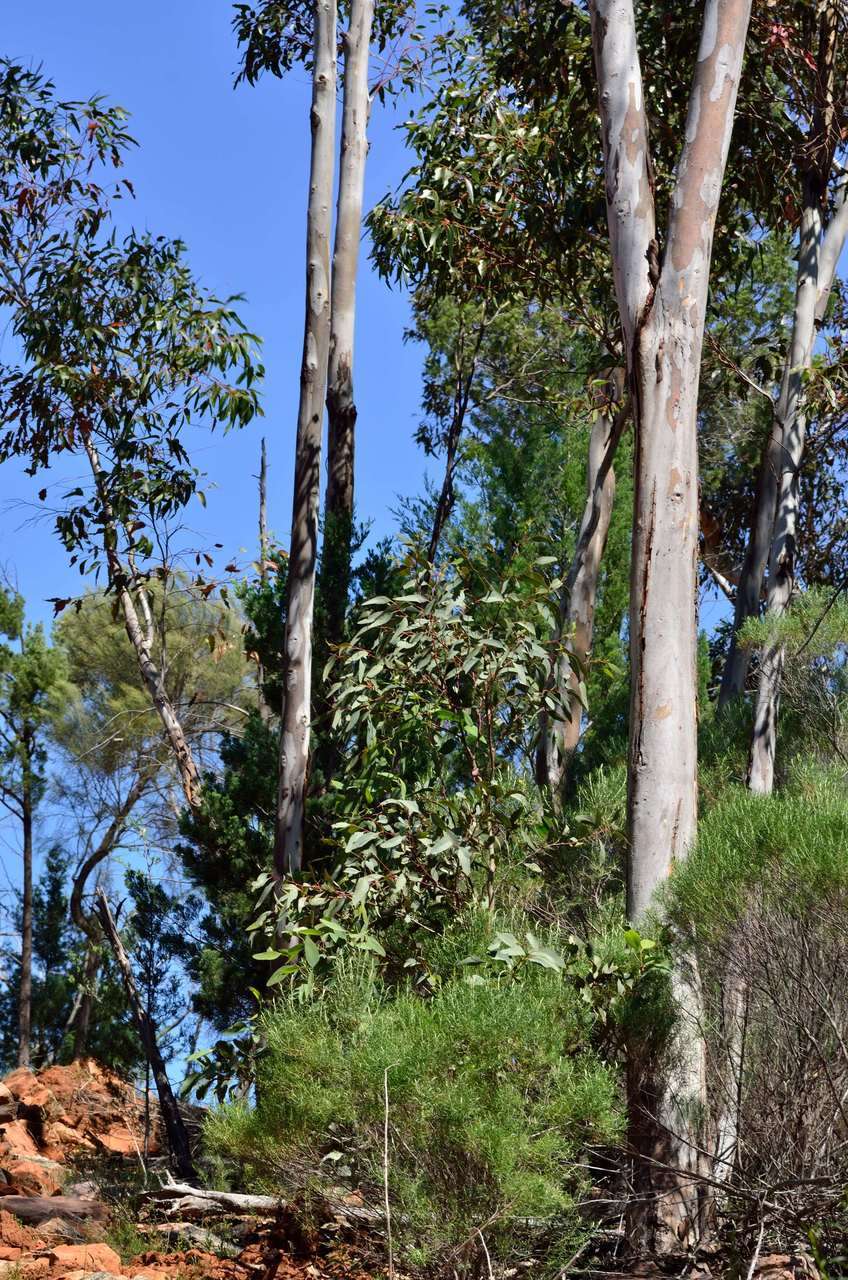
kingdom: Plantae
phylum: Tracheophyta
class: Magnoliopsida
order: Myrtales
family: Myrtaceae
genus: Eucalyptus
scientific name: Eucalyptus cladocalyx
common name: Sugargum
